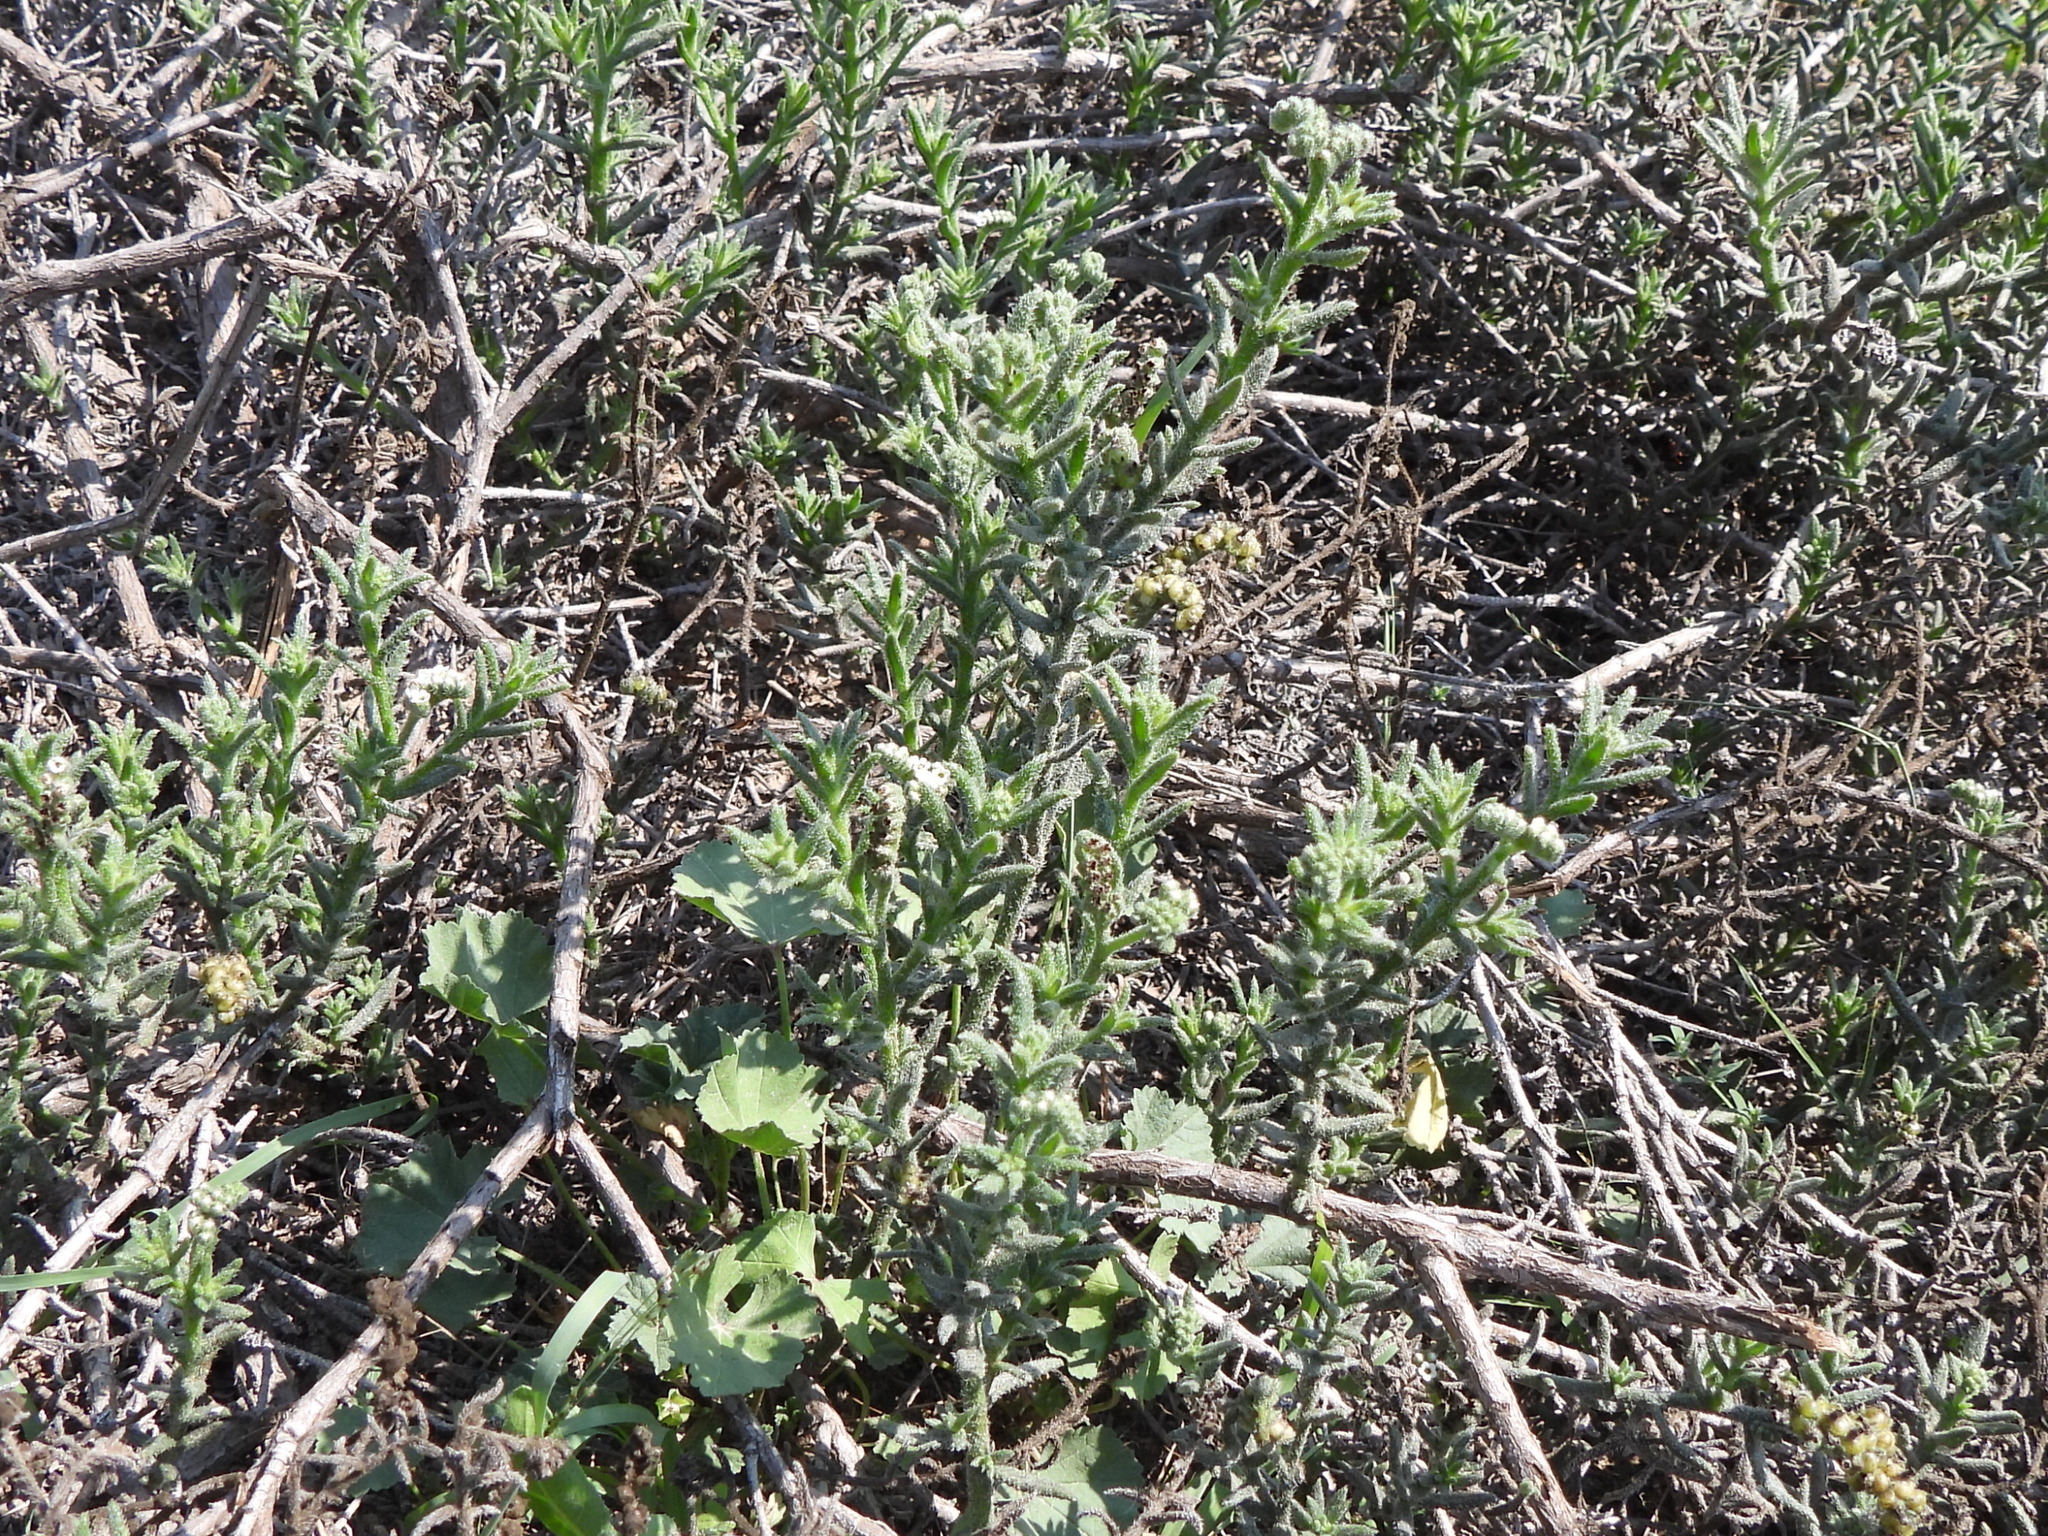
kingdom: Plantae
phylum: Tracheophyta
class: Magnoliopsida
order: Boraginales
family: Heliotropiaceae
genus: Heliotropium
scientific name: Heliotropium
